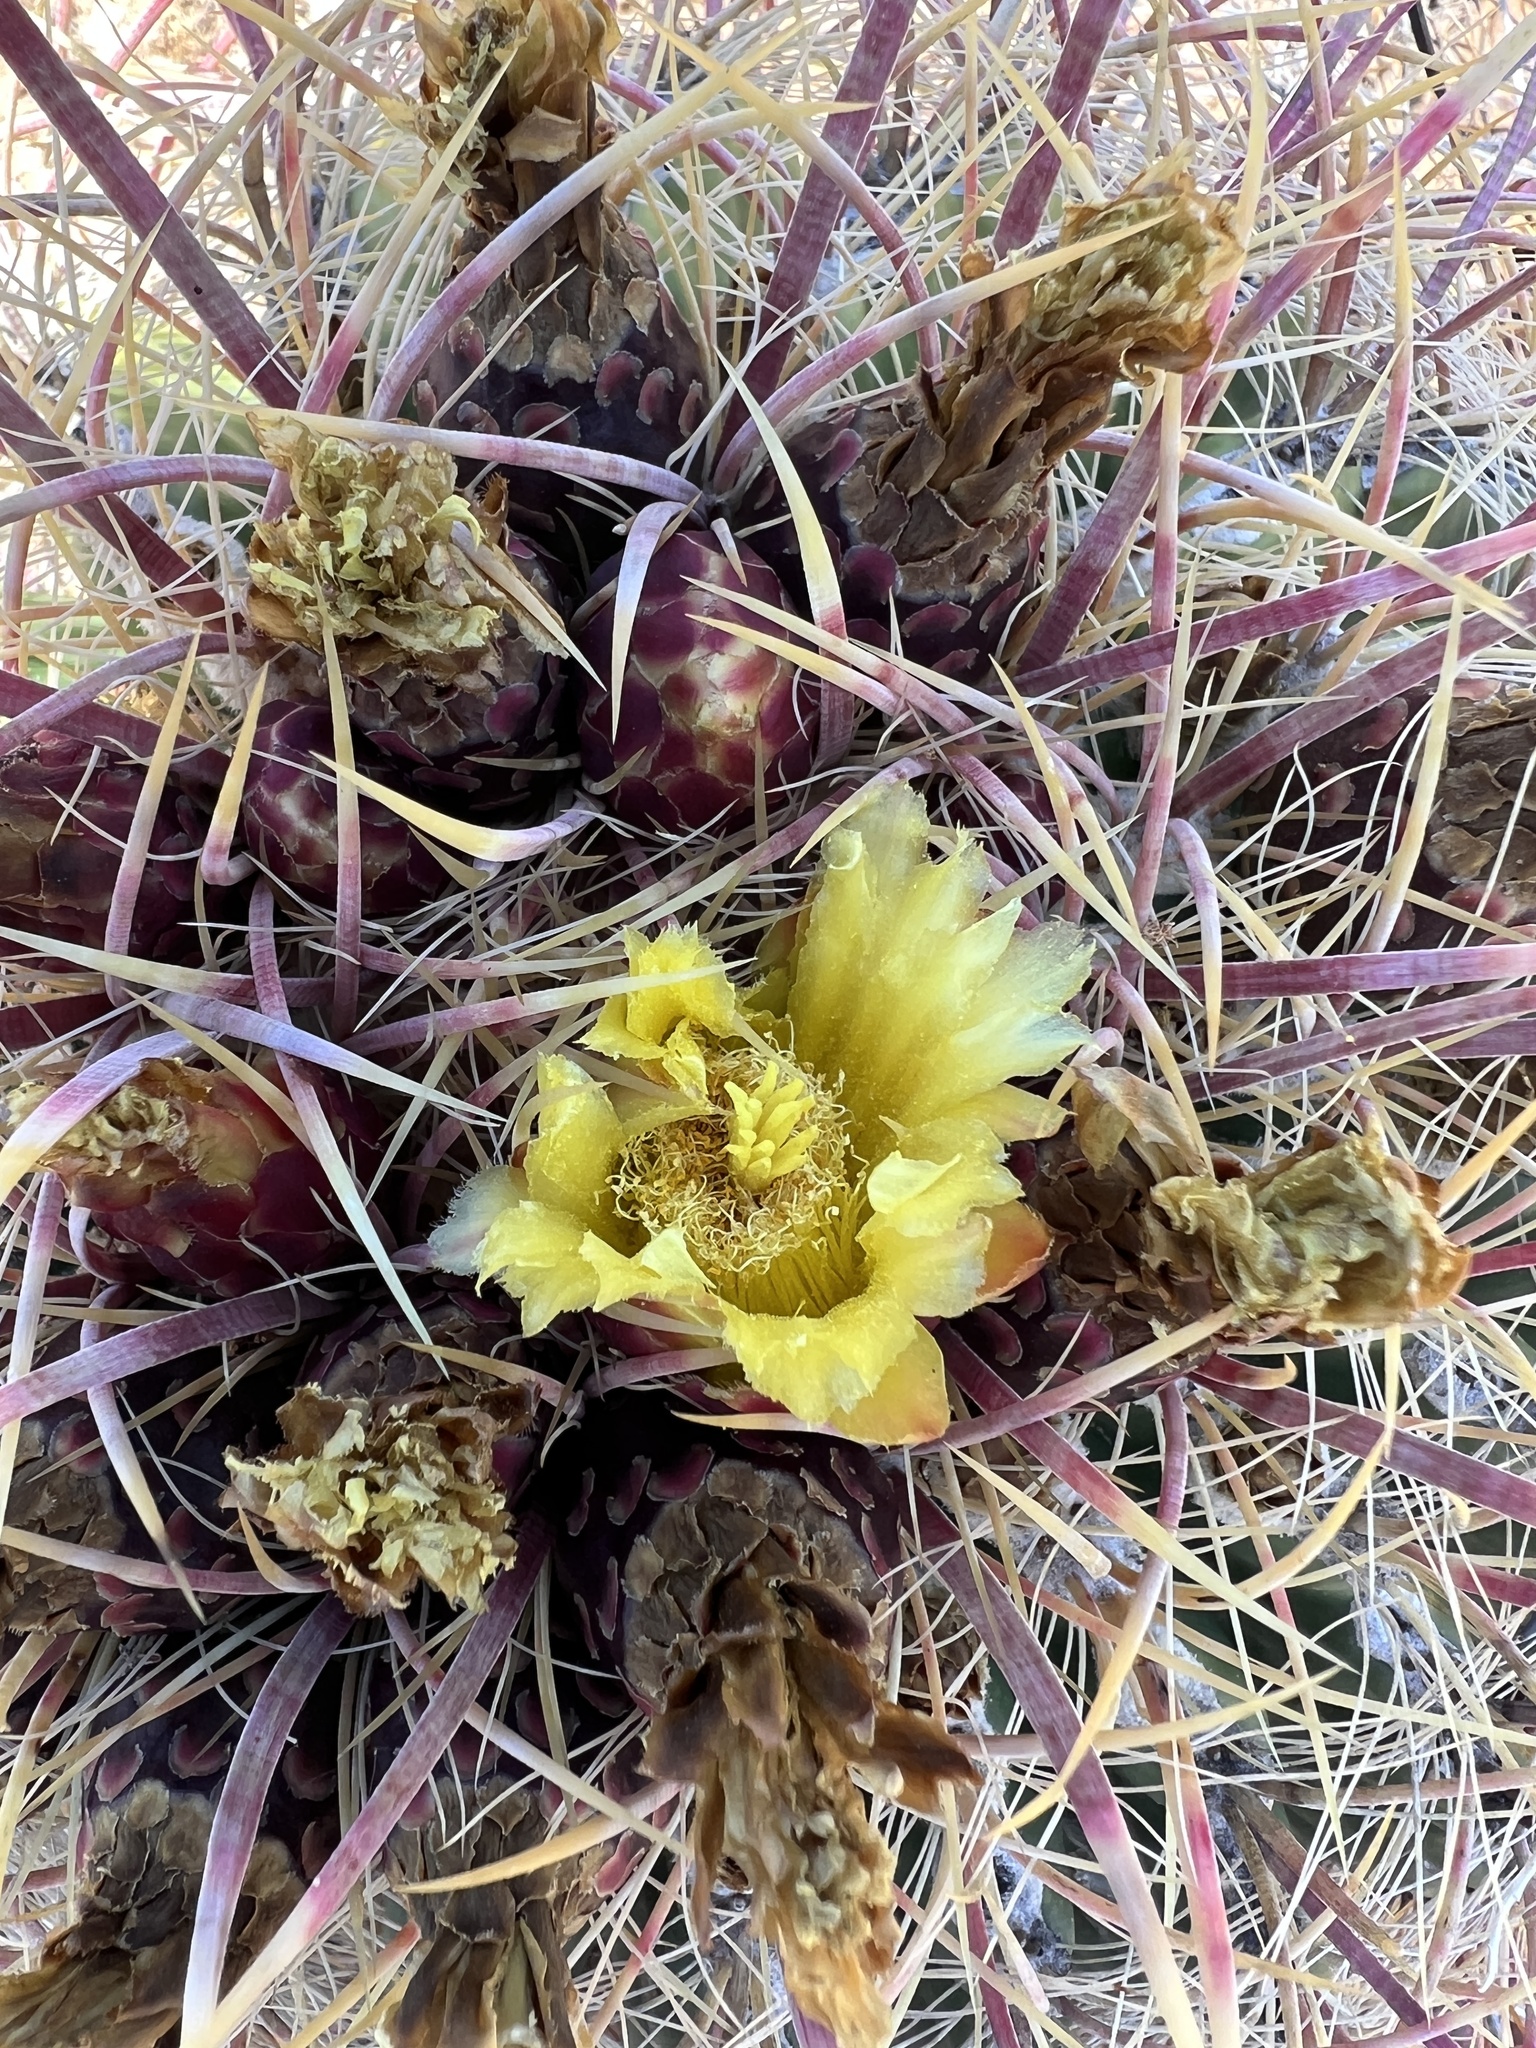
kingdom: Plantae
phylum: Tracheophyta
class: Magnoliopsida
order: Caryophyllales
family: Cactaceae
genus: Ferocactus
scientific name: Ferocactus cylindraceus
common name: California barrel cactus
